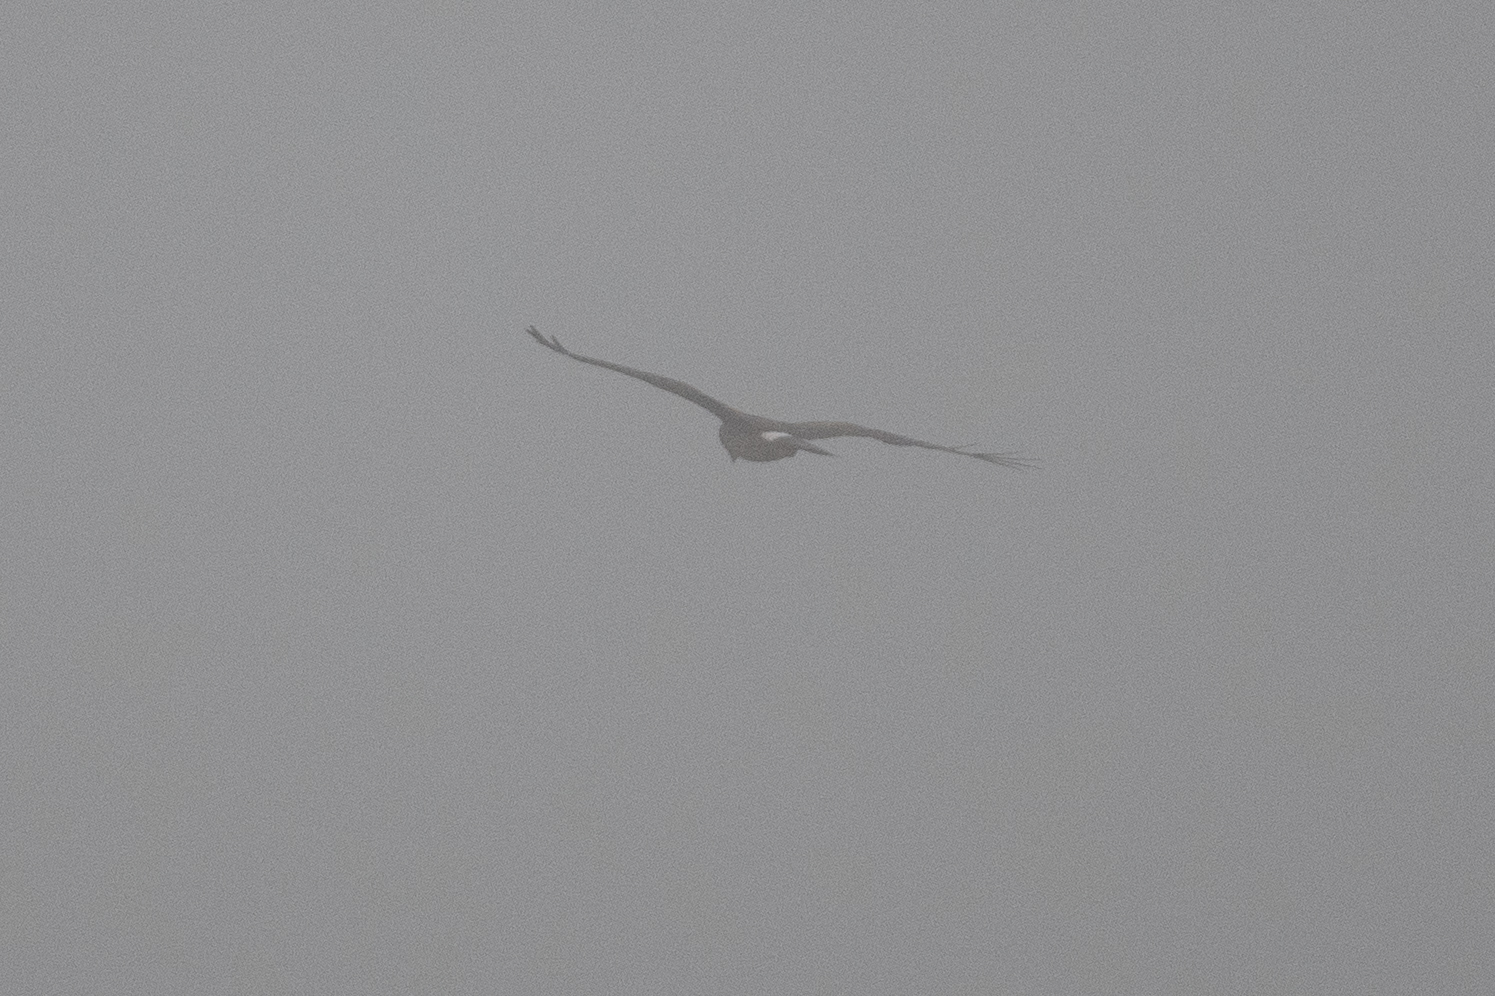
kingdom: Animalia
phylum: Chordata
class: Aves
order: Accipitriformes
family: Accipitridae
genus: Circus
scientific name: Circus cyaneus
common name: Hen harrier
